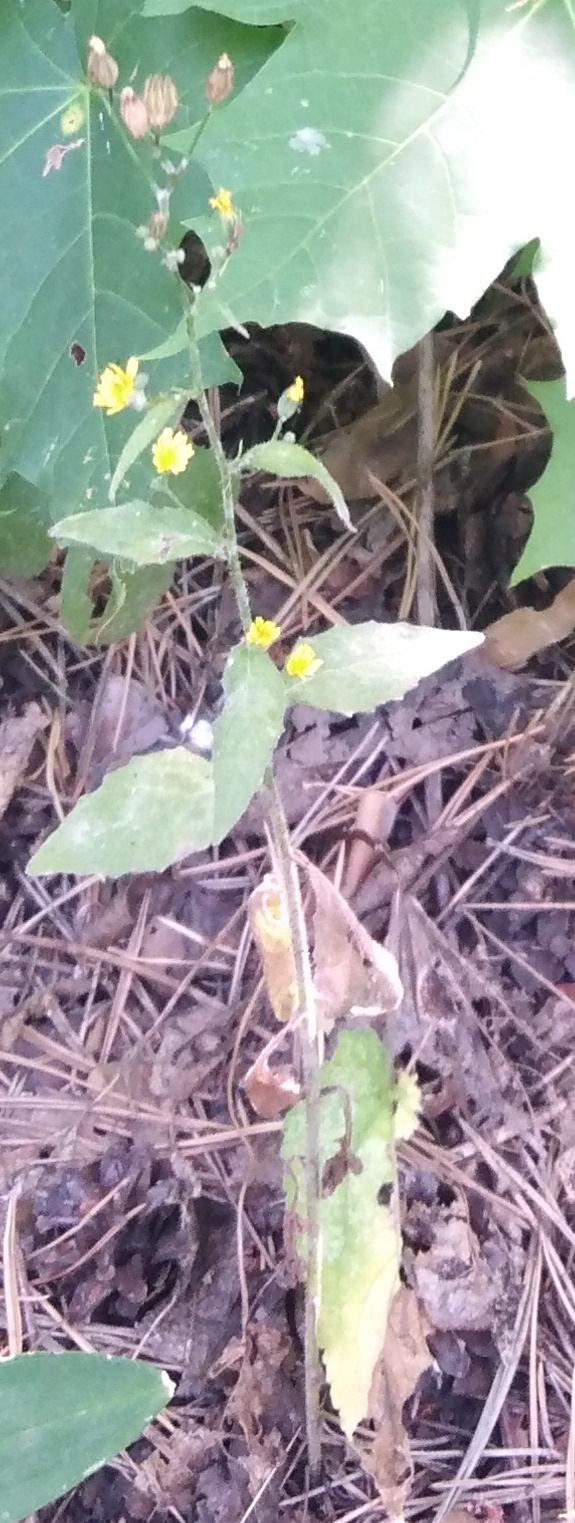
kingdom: Plantae
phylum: Tracheophyta
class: Magnoliopsida
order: Asterales
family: Asteraceae
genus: Lapsana
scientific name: Lapsana communis
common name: Nipplewort
